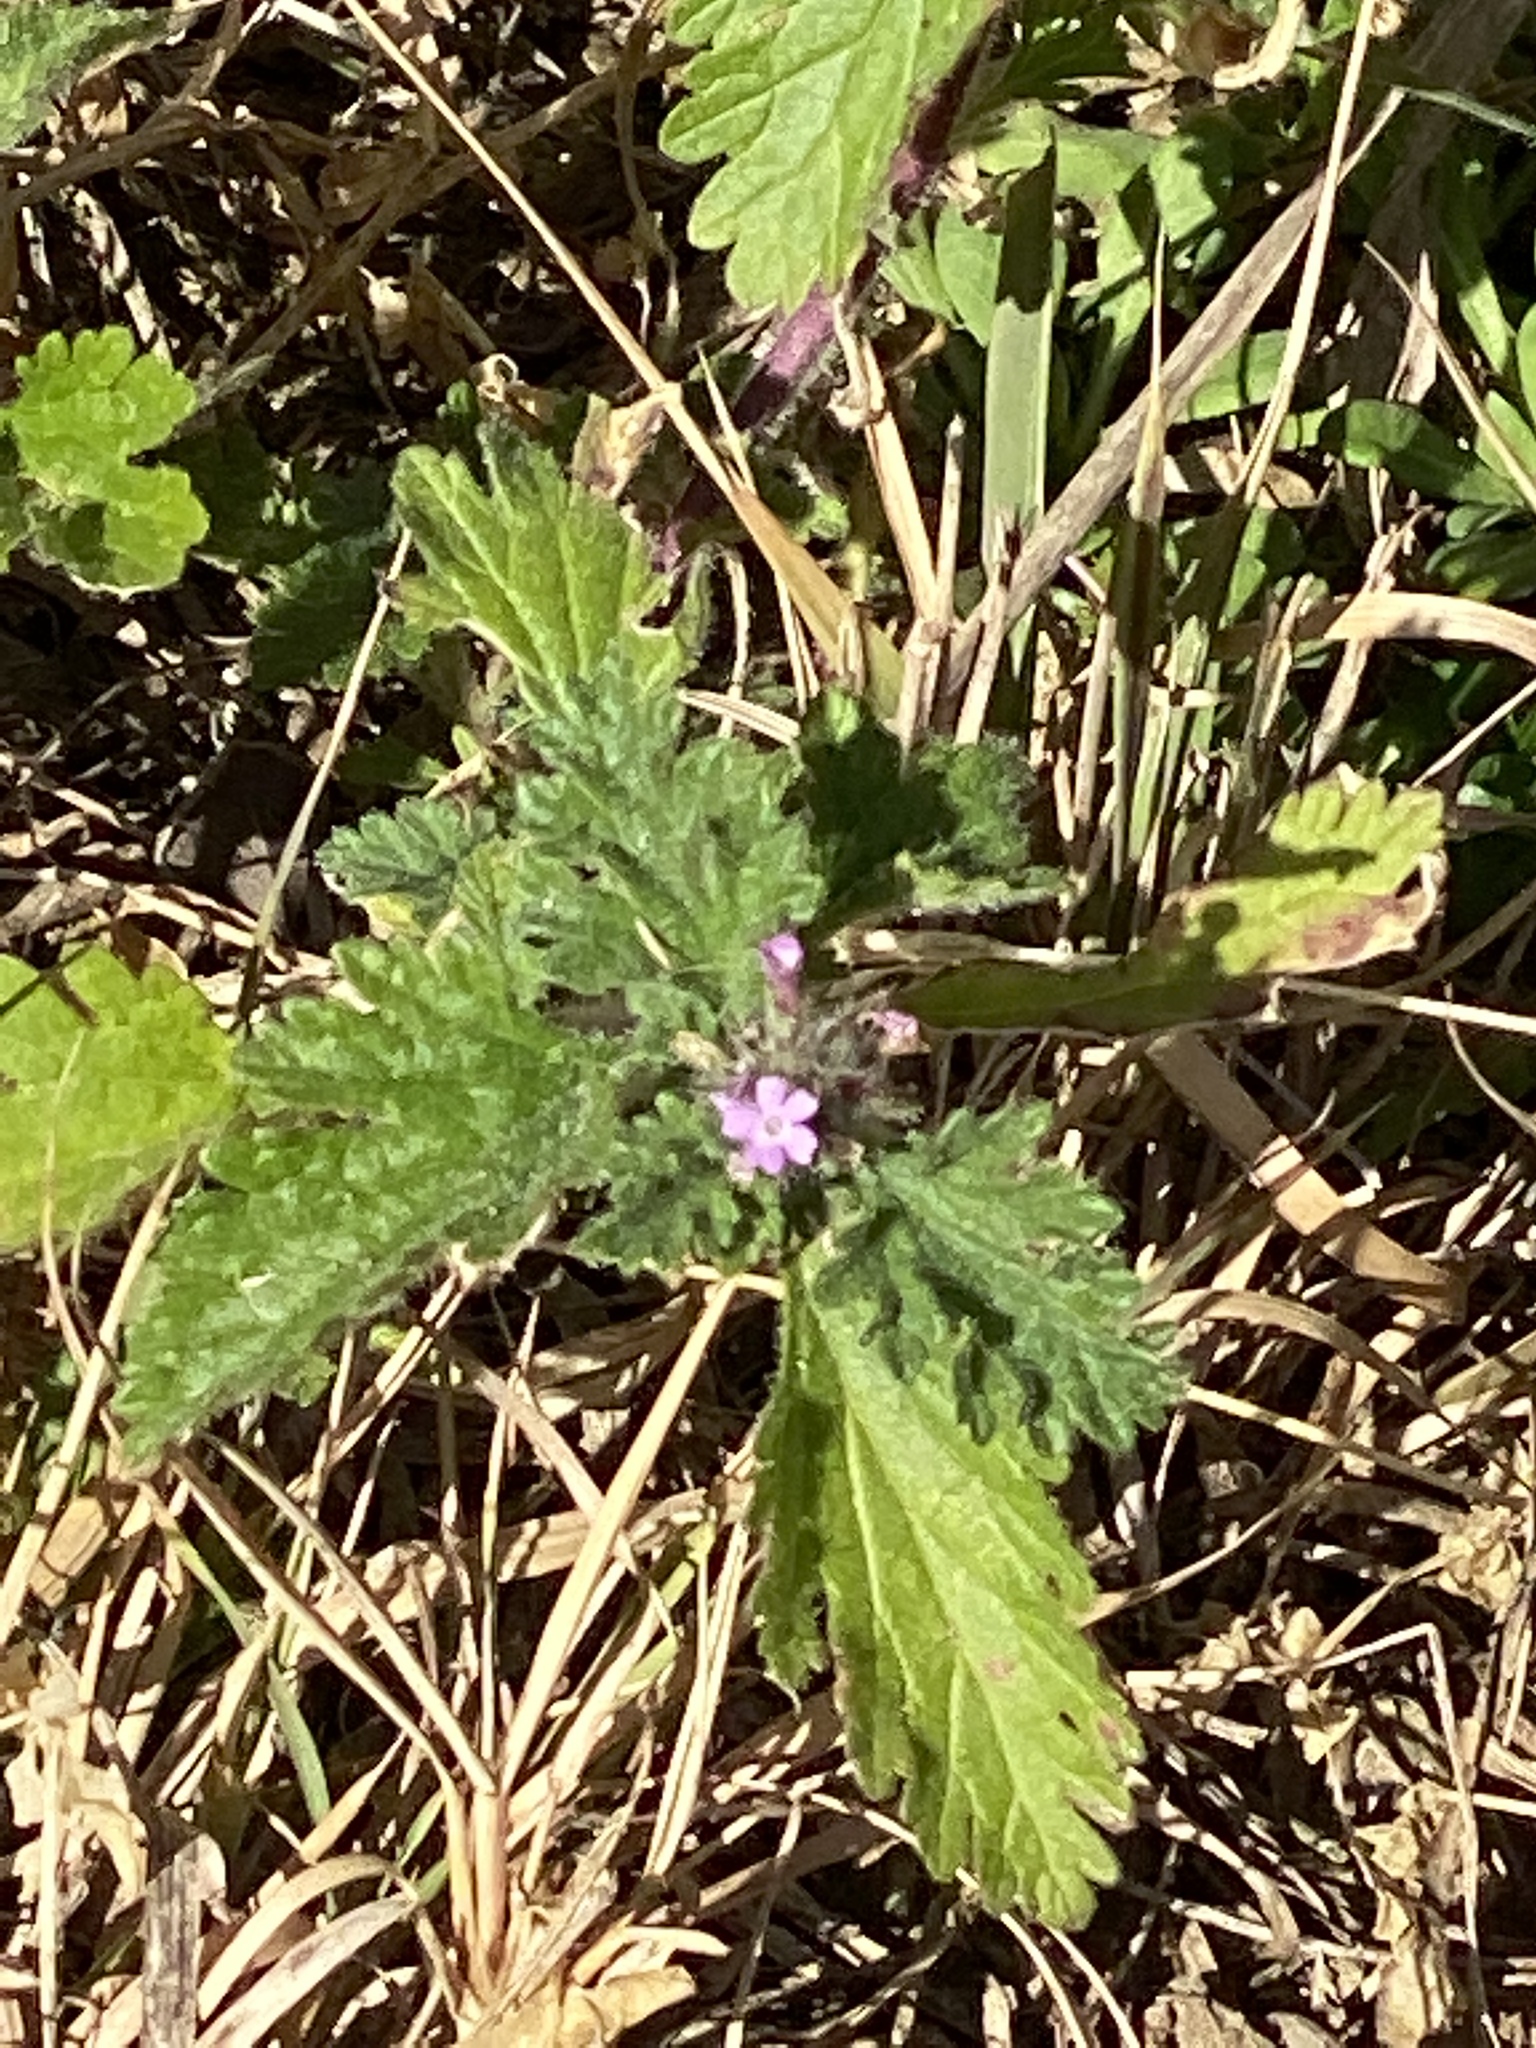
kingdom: Plantae
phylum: Tracheophyta
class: Magnoliopsida
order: Lamiales
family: Verbenaceae
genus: Verbena
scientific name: Verbena pumila
